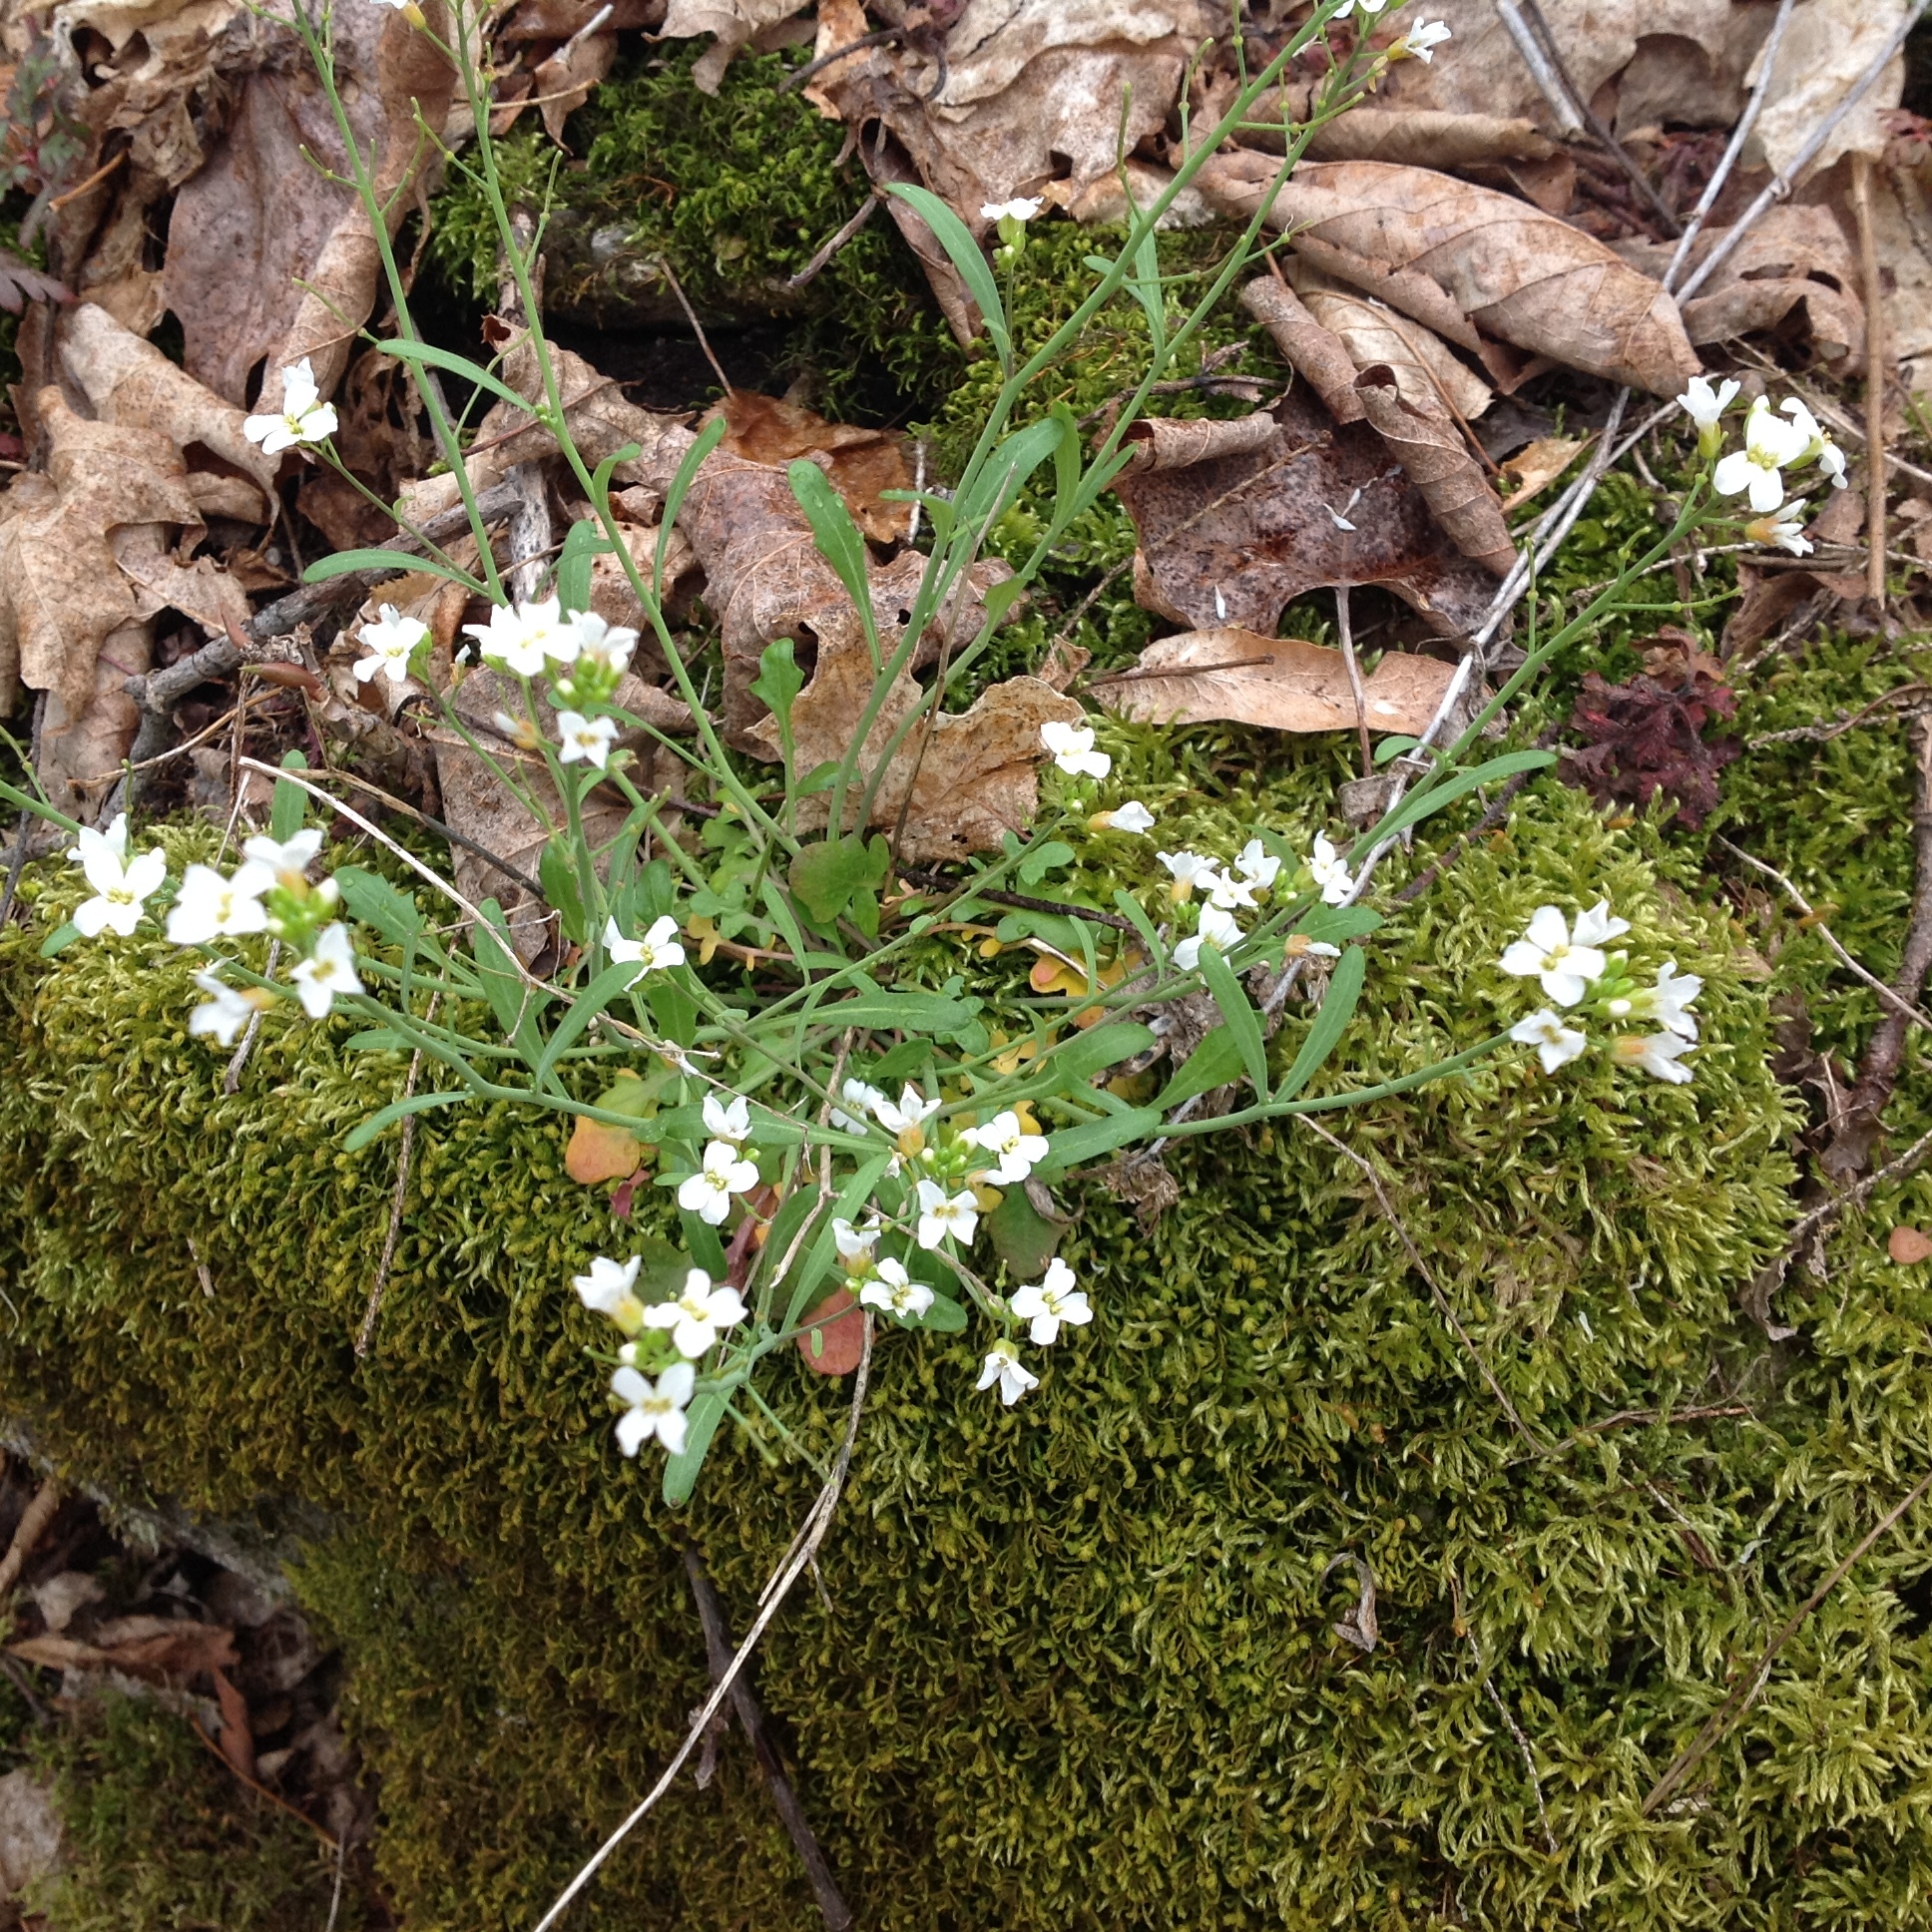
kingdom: Plantae
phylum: Tracheophyta
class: Magnoliopsida
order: Brassicales
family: Brassicaceae
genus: Arabidopsis
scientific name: Arabidopsis lyrata
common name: Lyrate rockcress
